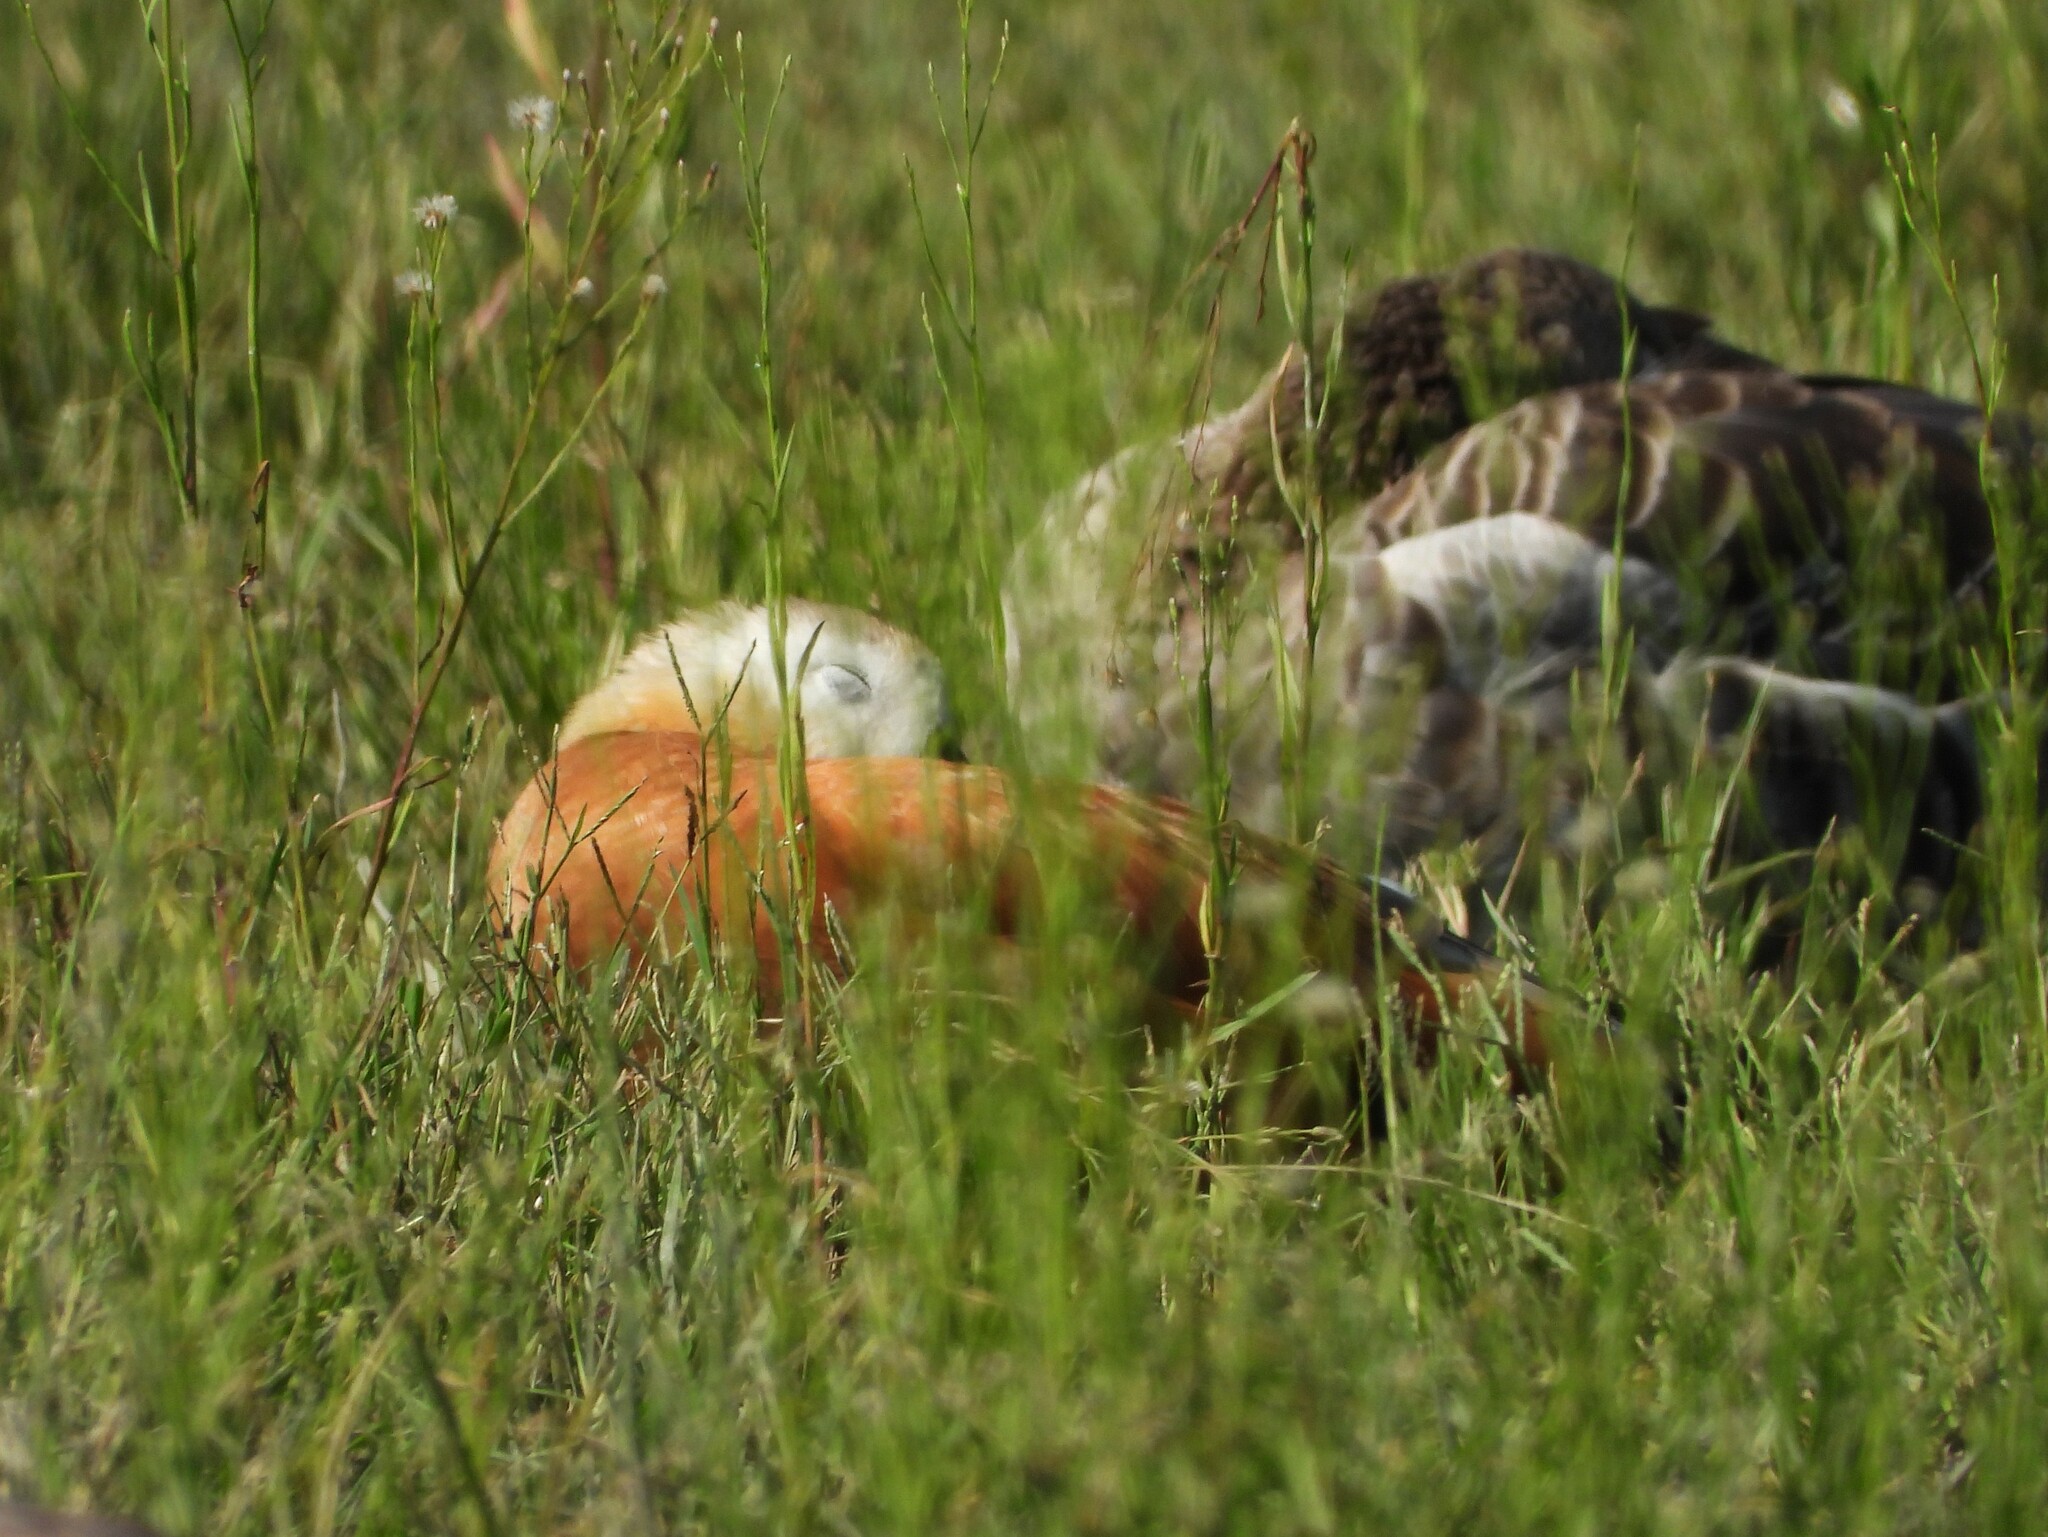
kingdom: Animalia
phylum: Chordata
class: Aves
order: Anseriformes
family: Anatidae
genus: Tadorna
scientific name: Tadorna ferruginea
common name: Ruddy shelduck
